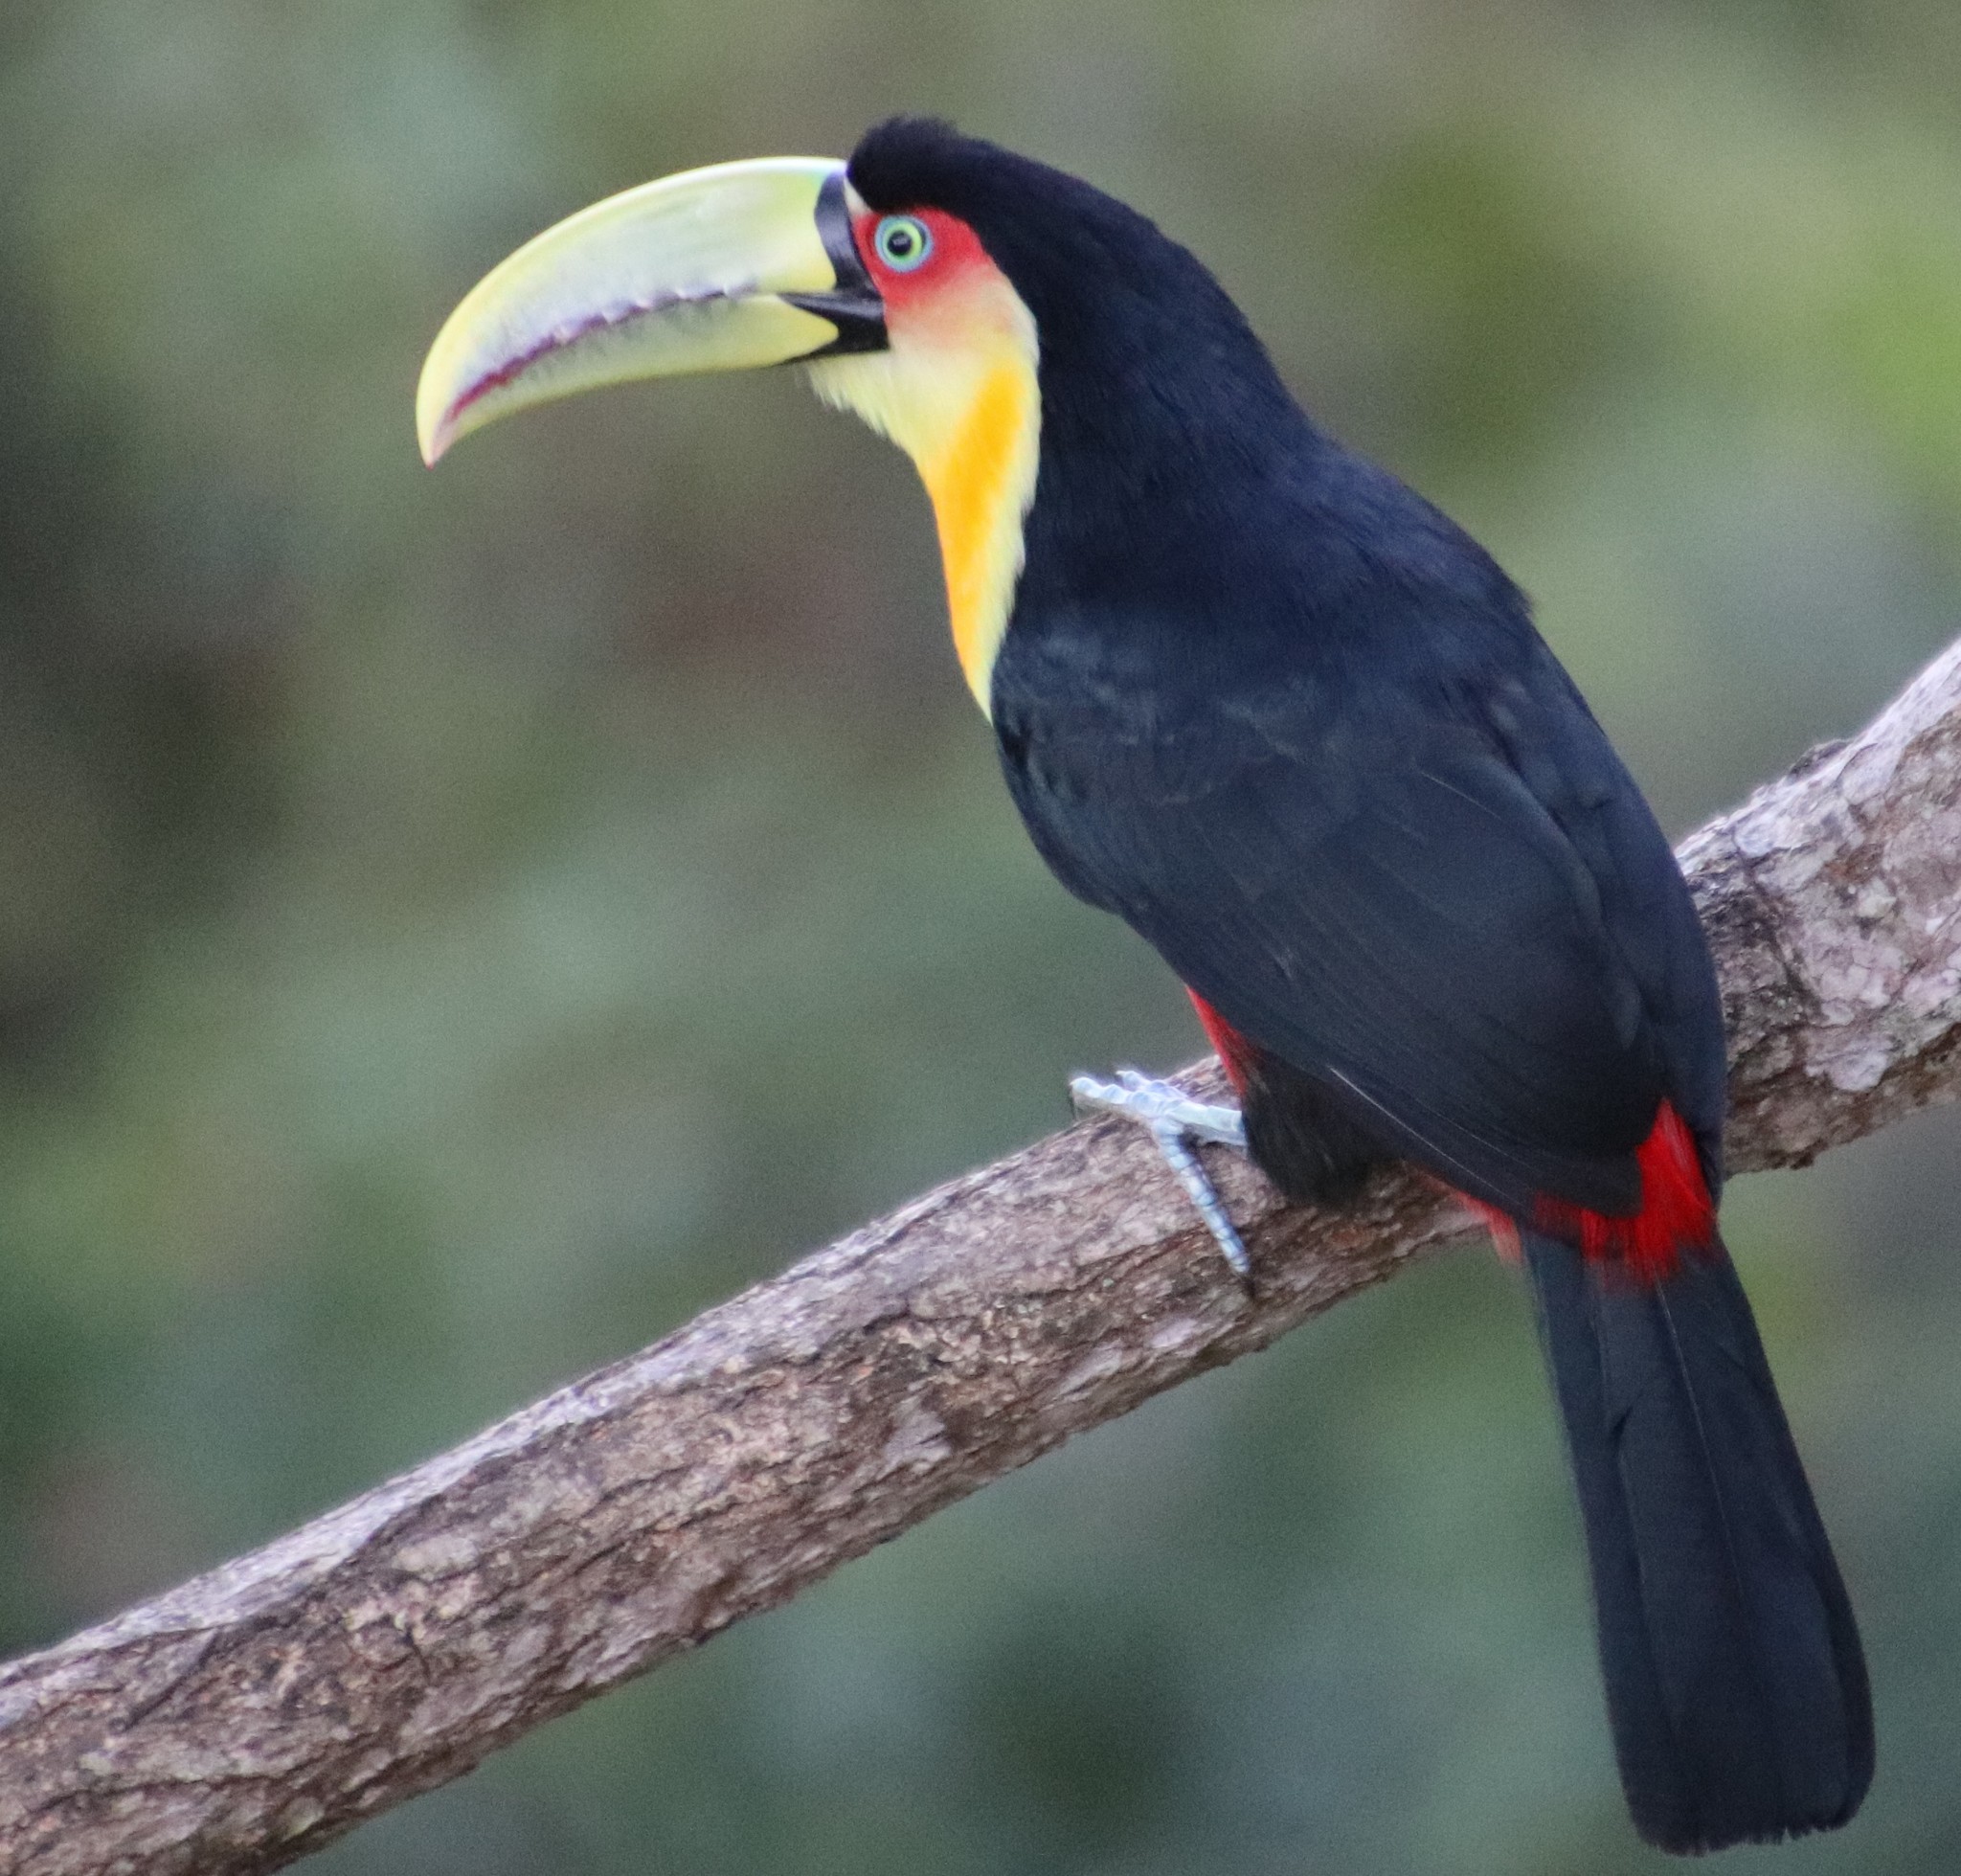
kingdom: Animalia
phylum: Chordata
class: Aves
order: Piciformes
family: Ramphastidae
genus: Ramphastos
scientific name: Ramphastos dicolorus
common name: Green-billed toucan
